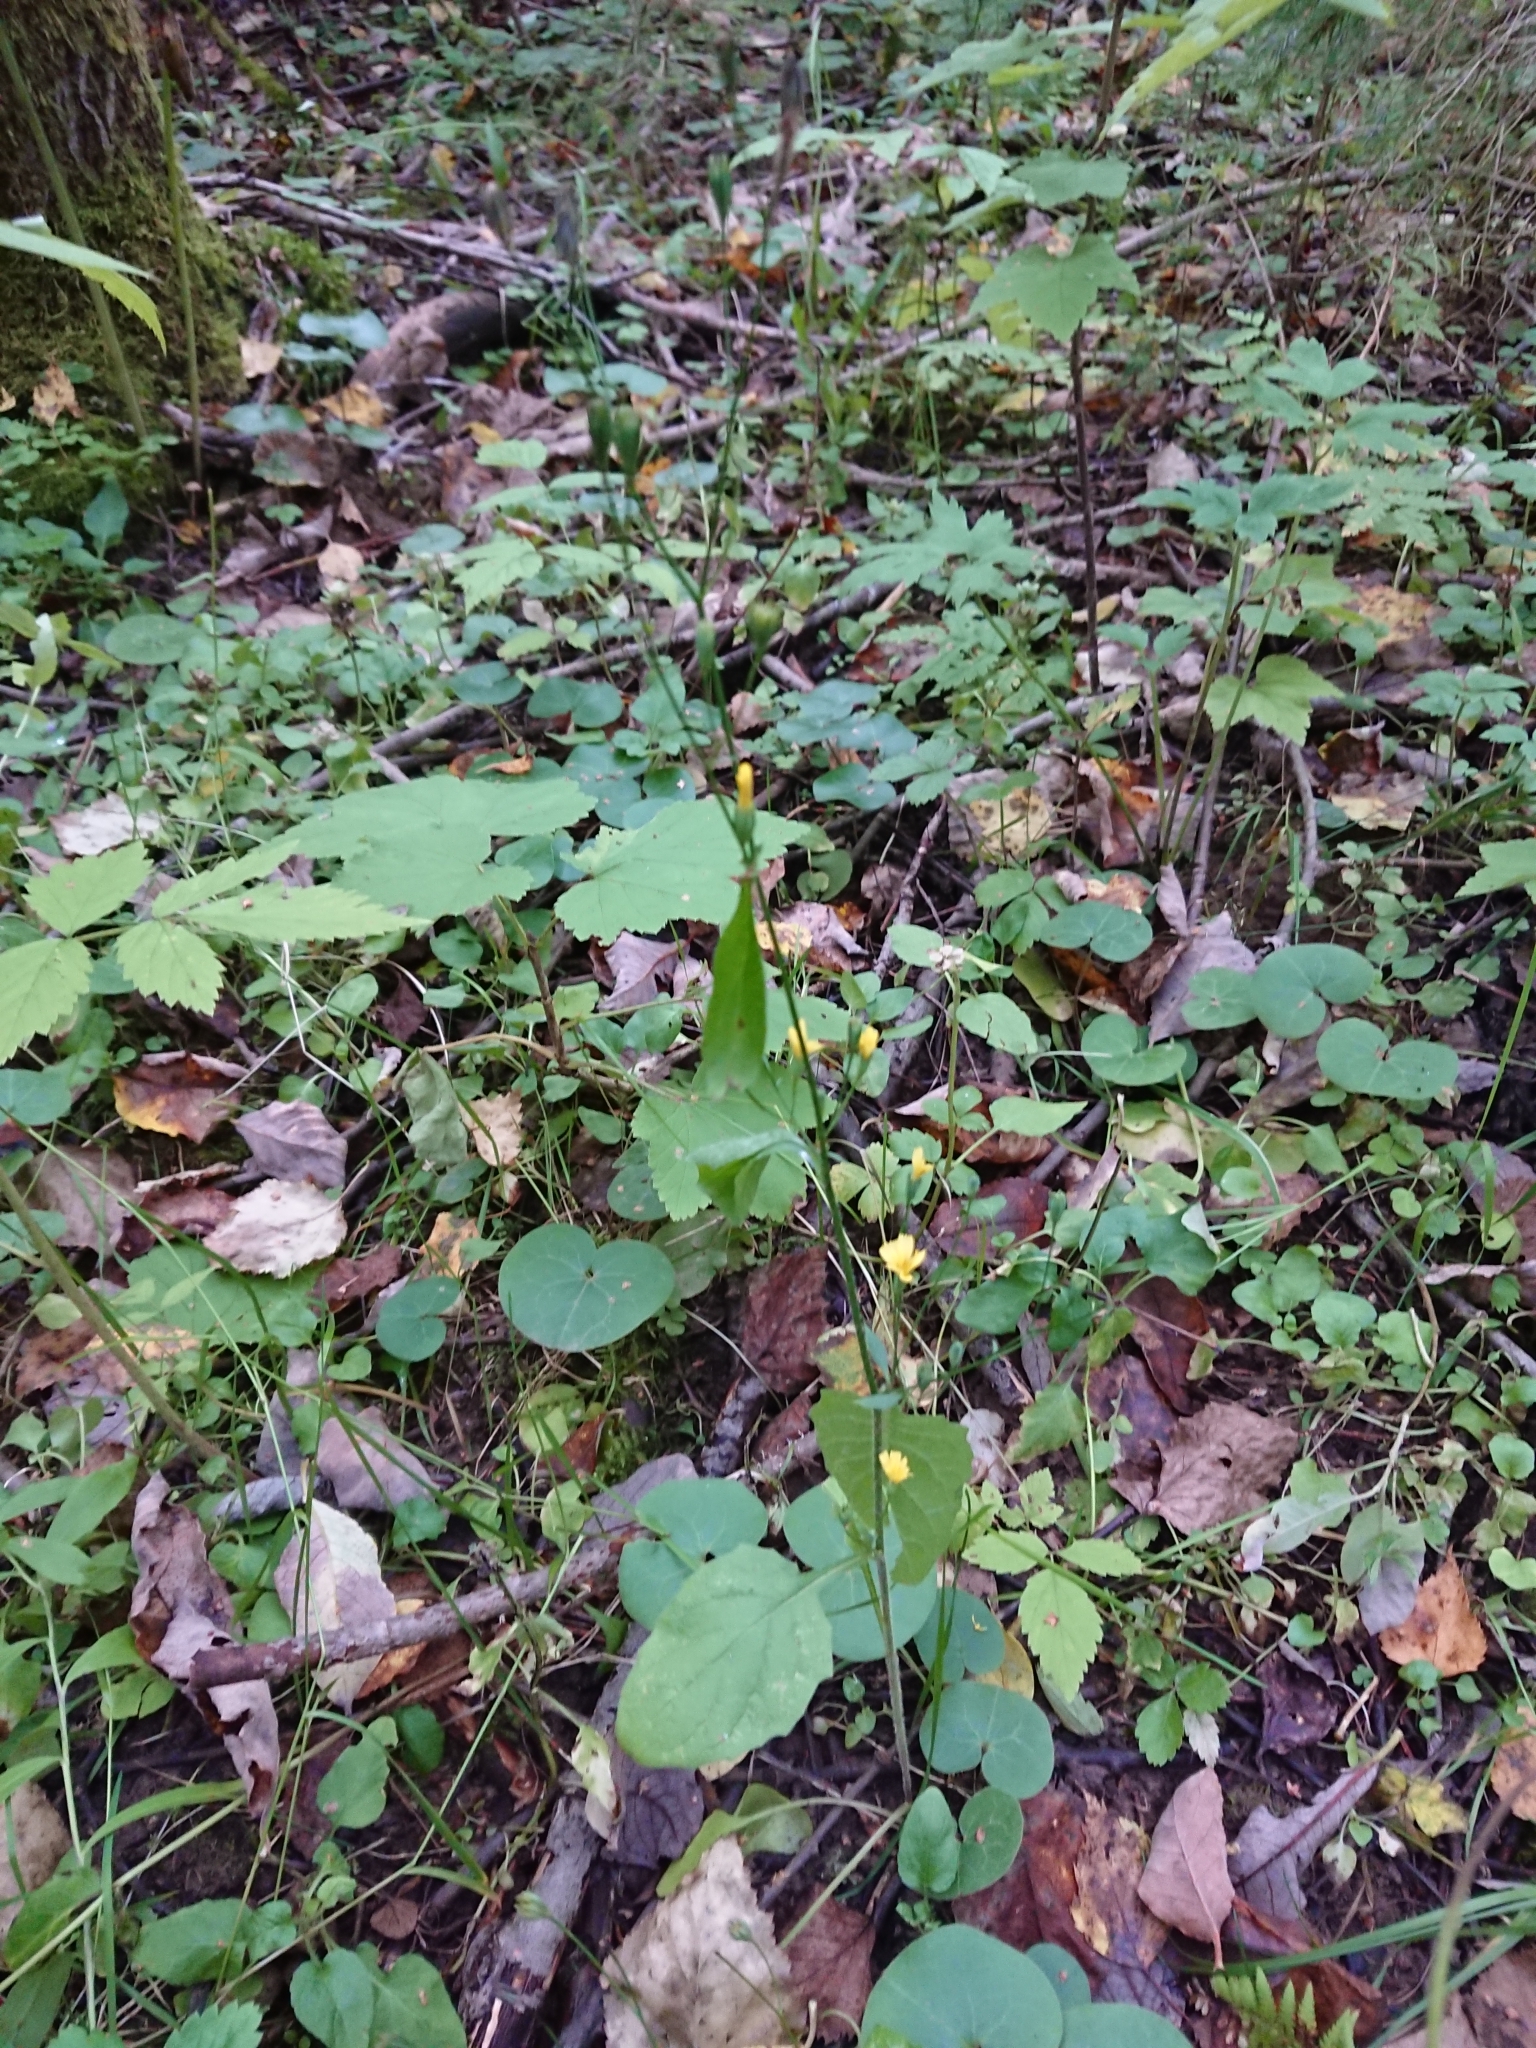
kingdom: Plantae
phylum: Tracheophyta
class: Magnoliopsida
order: Asterales
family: Asteraceae
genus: Lapsana
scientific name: Lapsana communis
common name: Nipplewort
